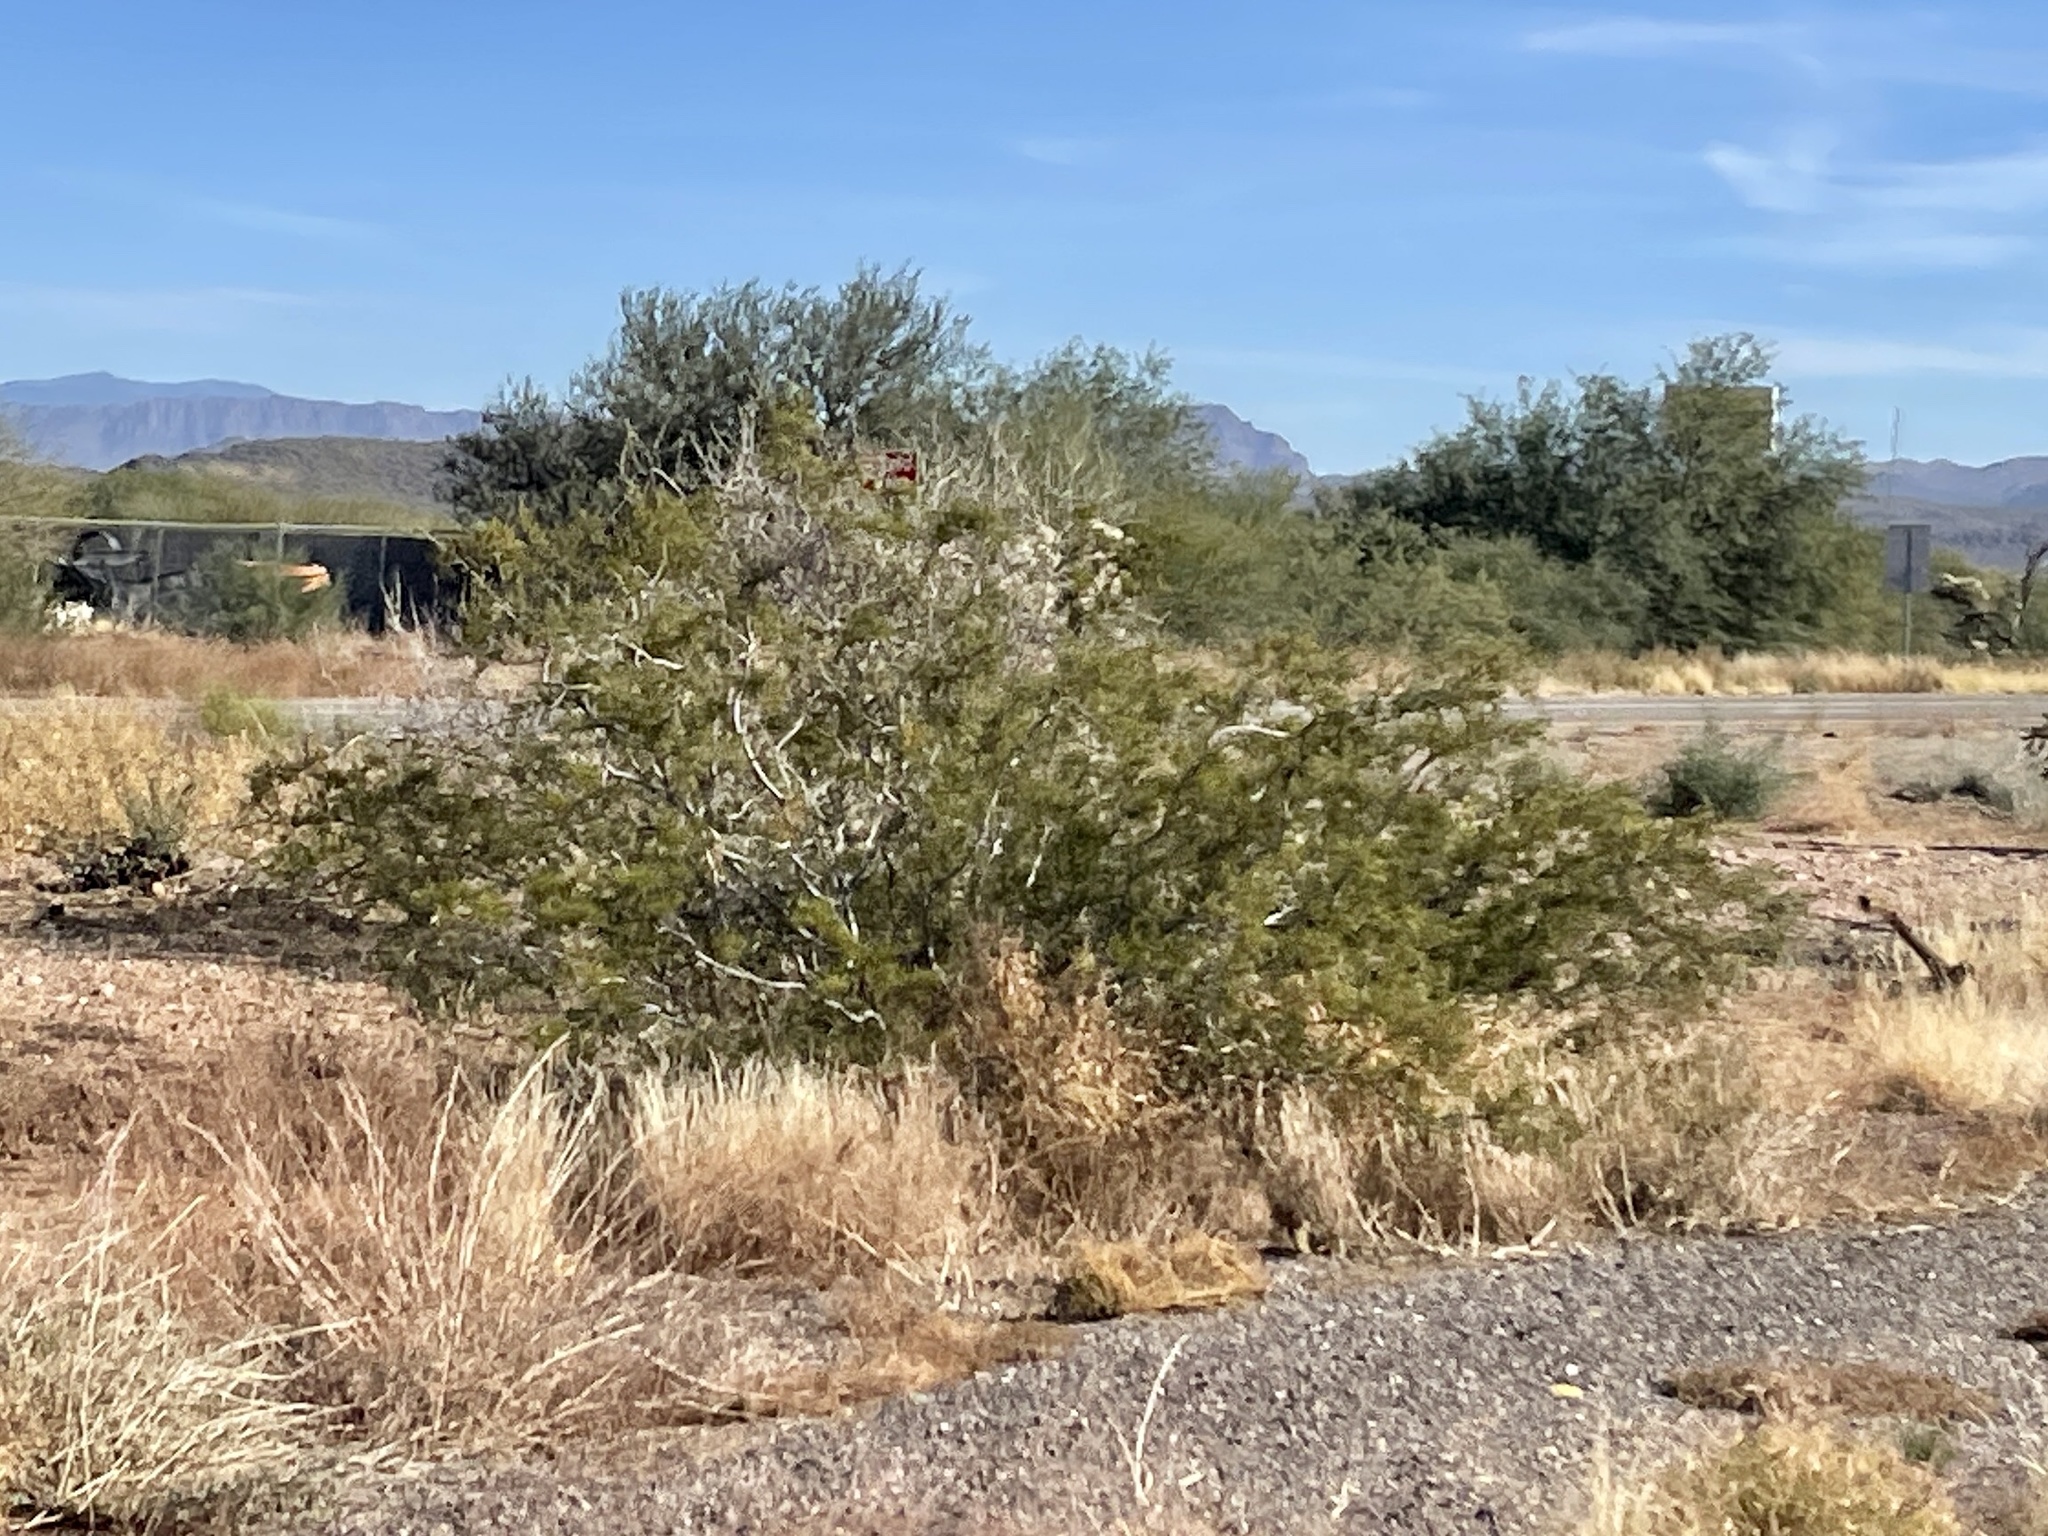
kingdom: Plantae
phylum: Tracheophyta
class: Magnoliopsida
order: Zygophyllales
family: Zygophyllaceae
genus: Larrea
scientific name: Larrea tridentata
